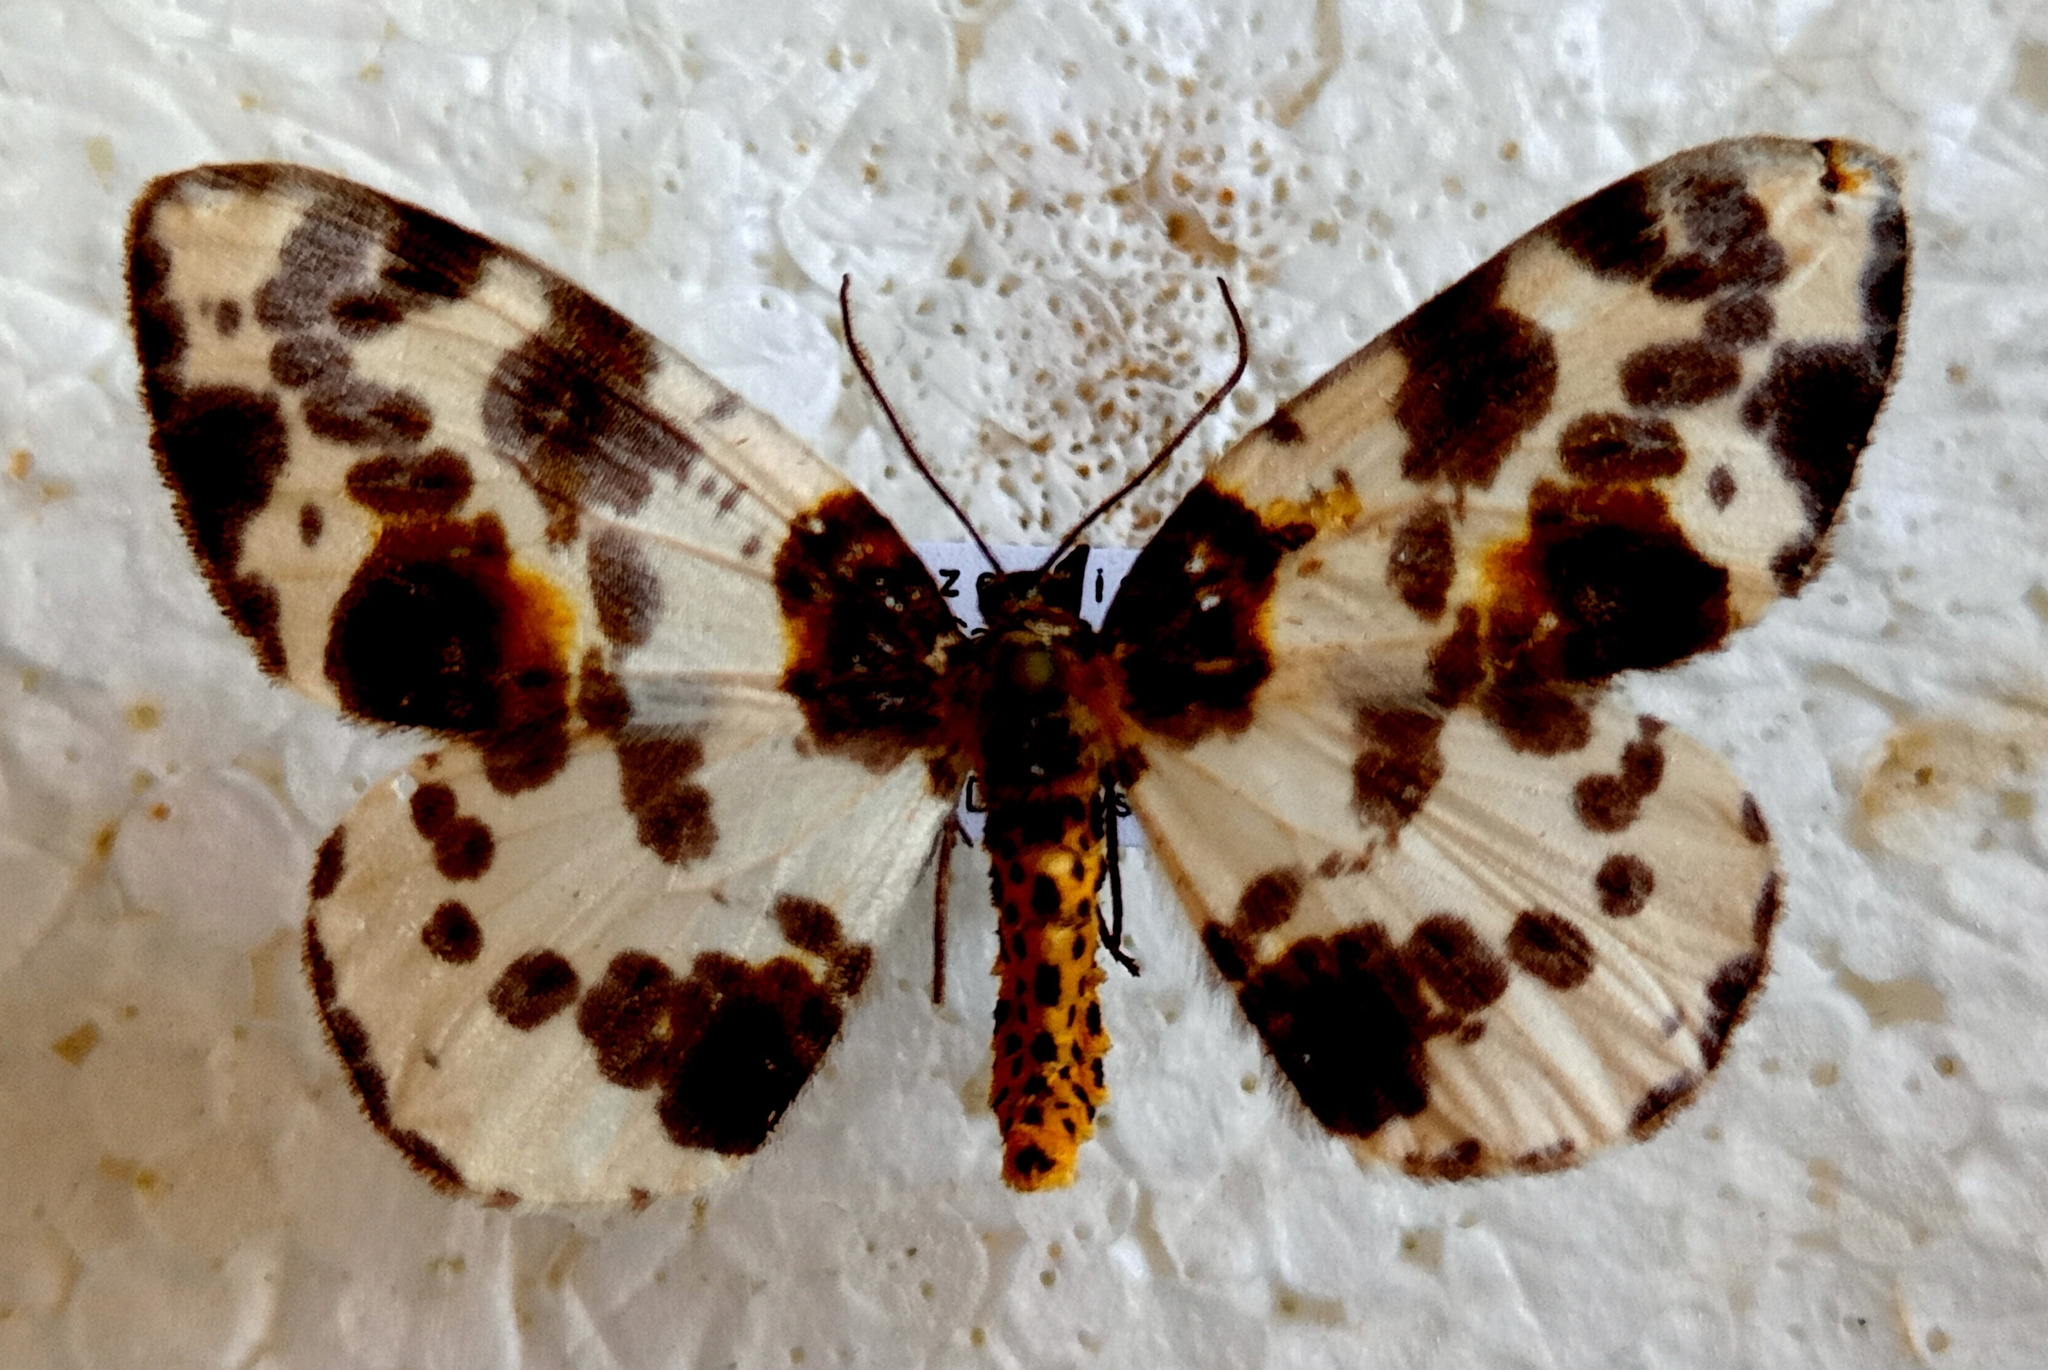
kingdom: Animalia
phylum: Arthropoda
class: Insecta
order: Lepidoptera
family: Geometridae
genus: Abraxas
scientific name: Abraxas sylvata
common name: Clouded magpie
